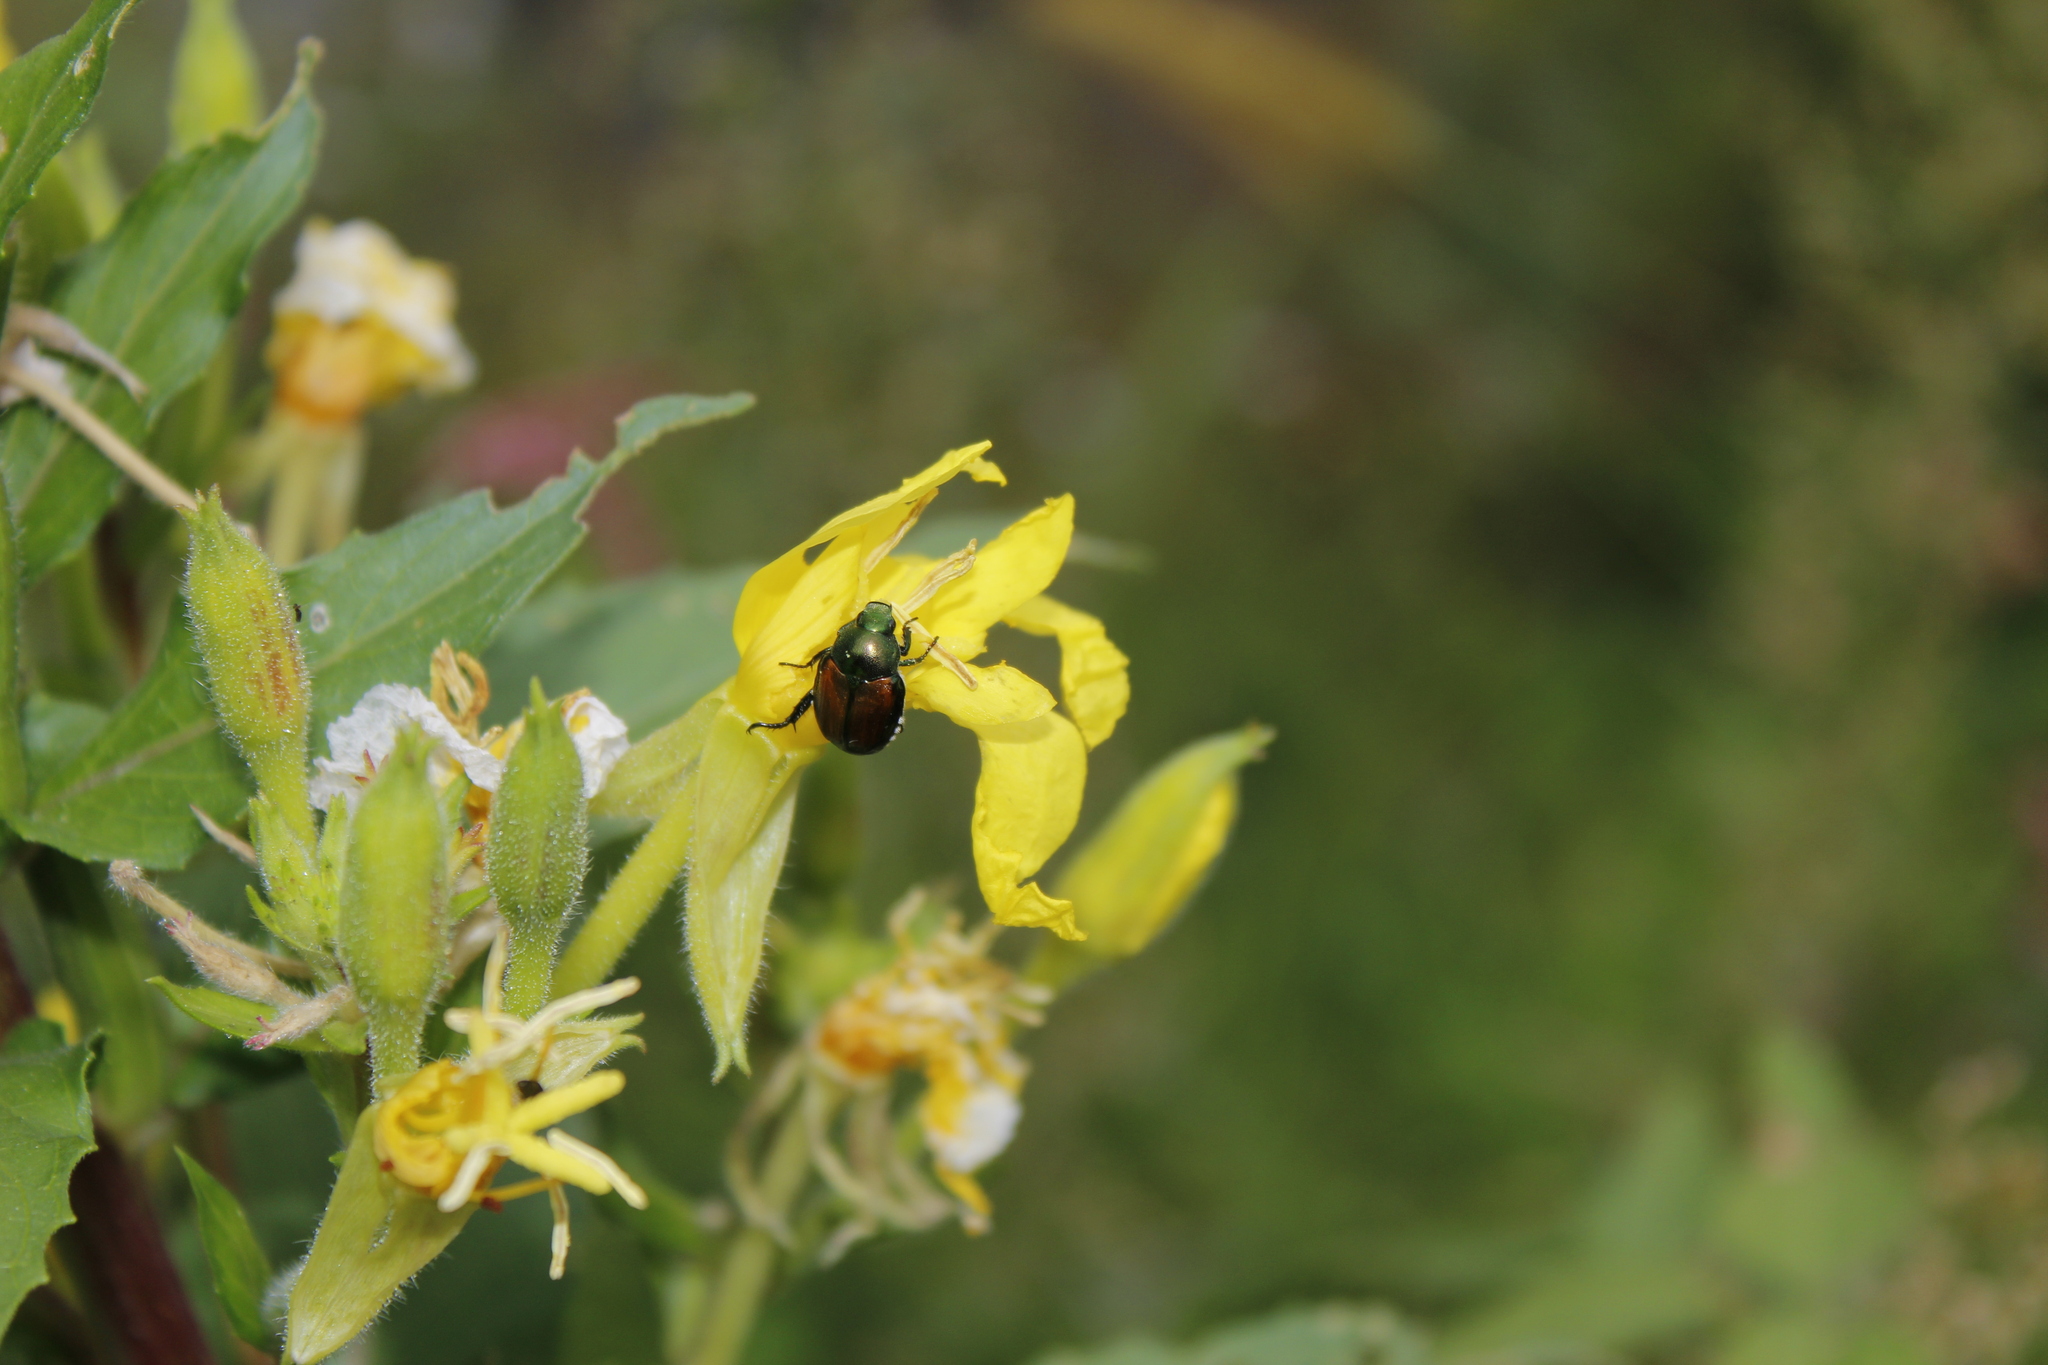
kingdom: Animalia
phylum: Arthropoda
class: Insecta
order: Coleoptera
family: Scarabaeidae
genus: Popillia
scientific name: Popillia japonica
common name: Japanese beetle
